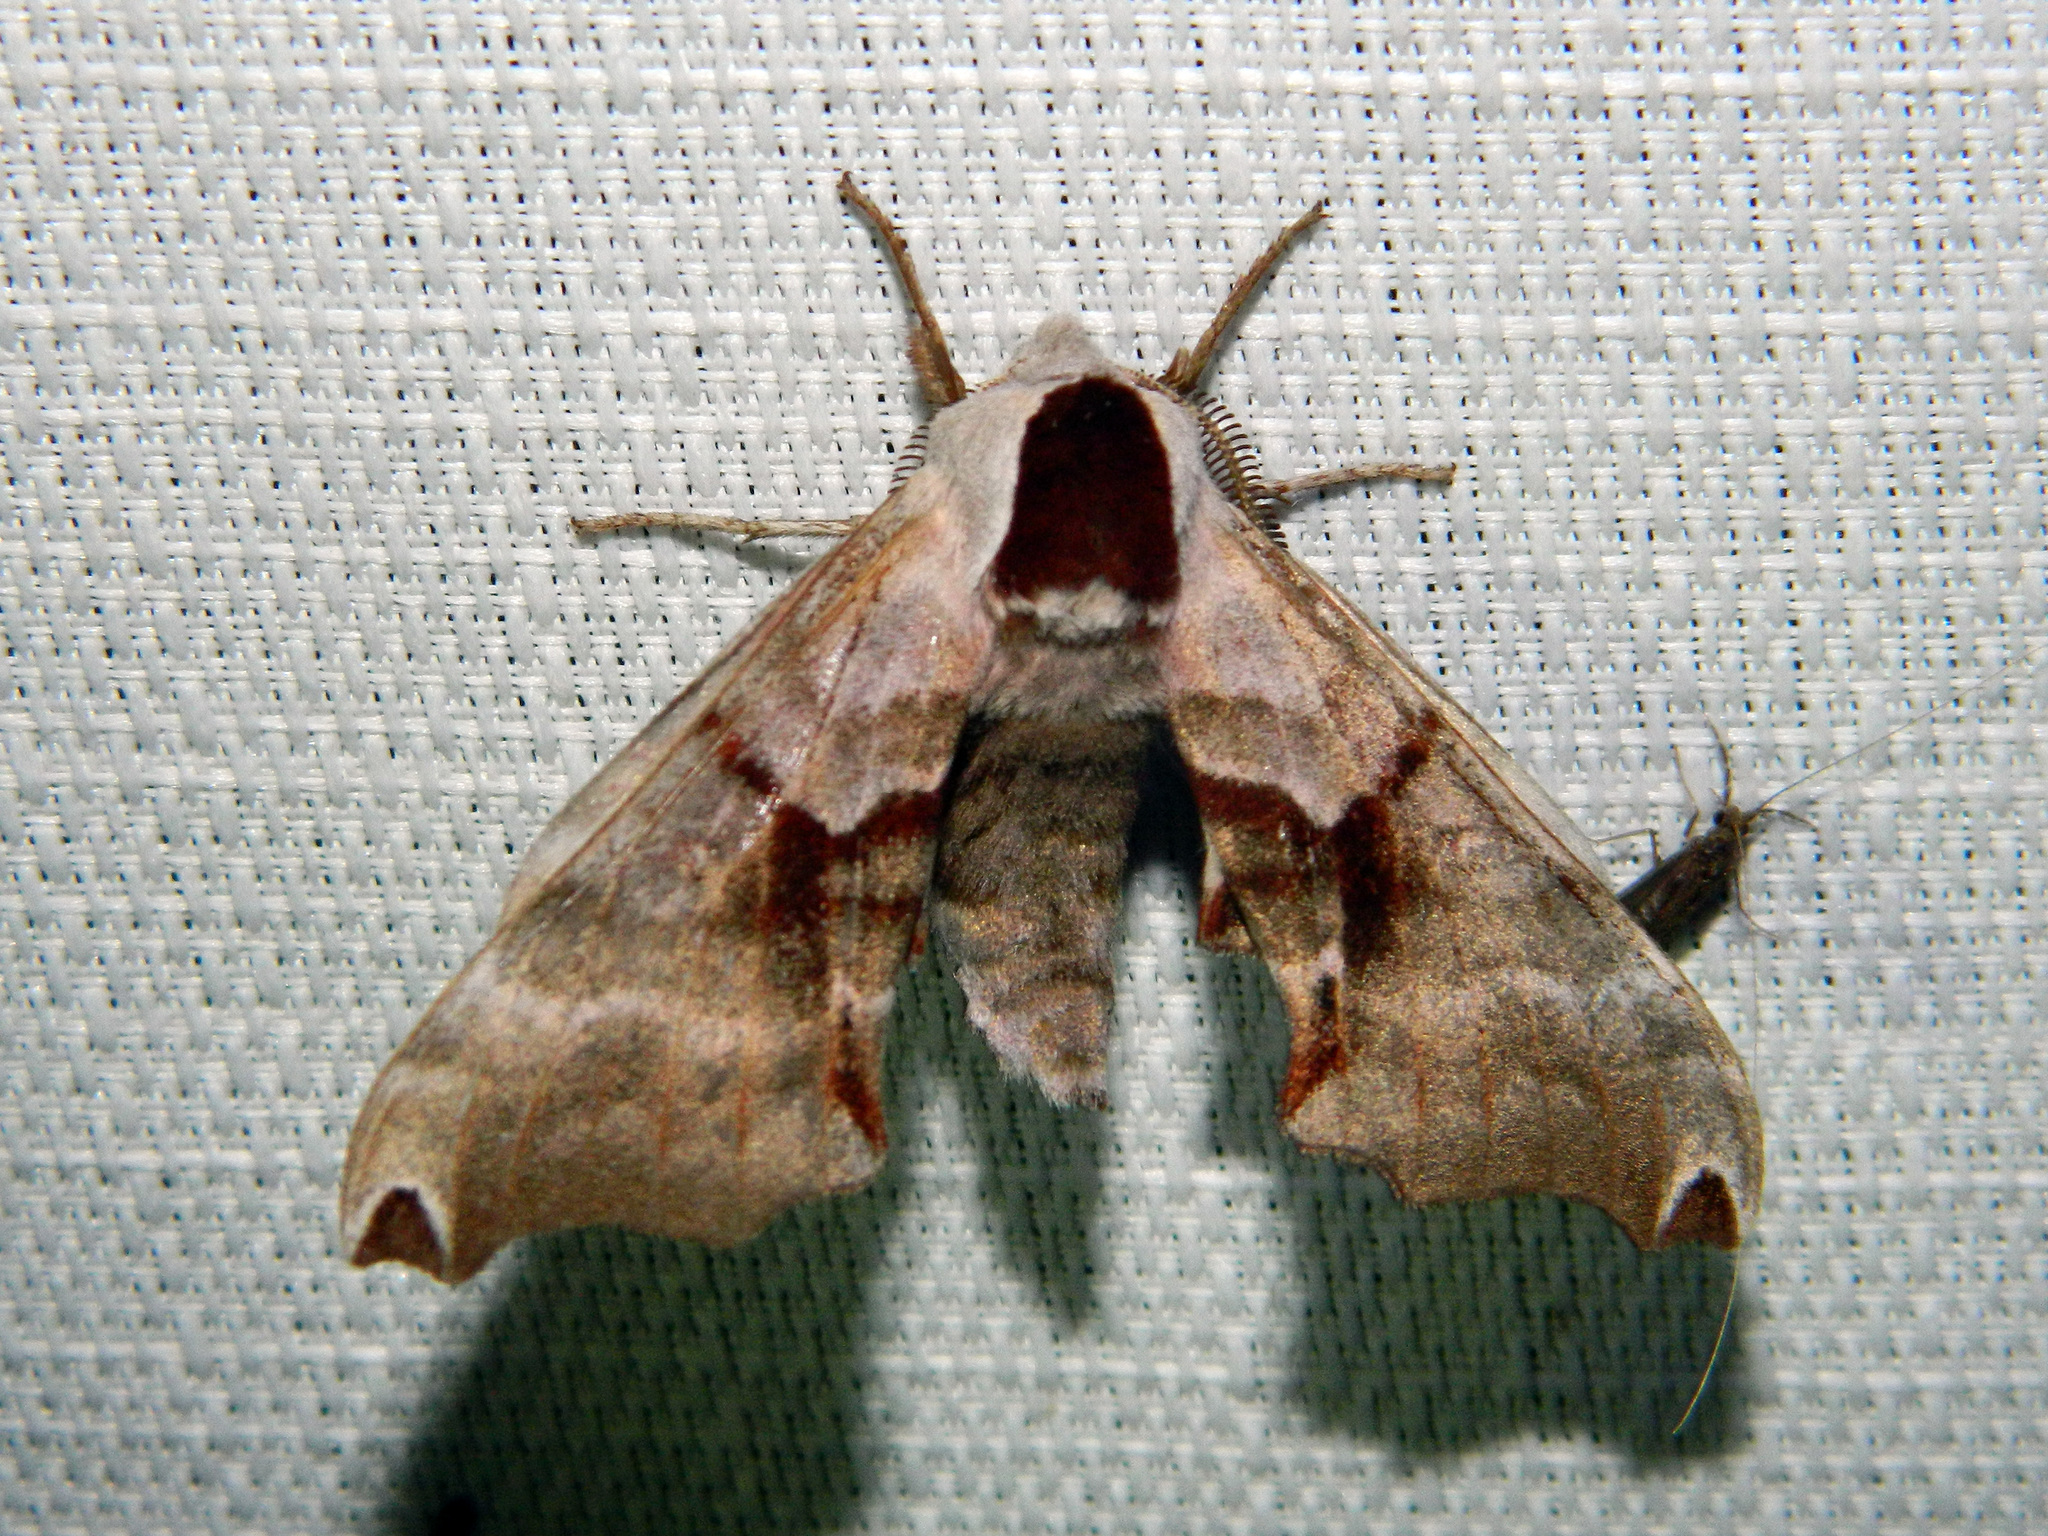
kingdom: Animalia
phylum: Arthropoda
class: Insecta
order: Lepidoptera
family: Sphingidae
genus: Smerinthus
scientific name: Smerinthus jamaicensis
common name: Twin spotted sphinx
